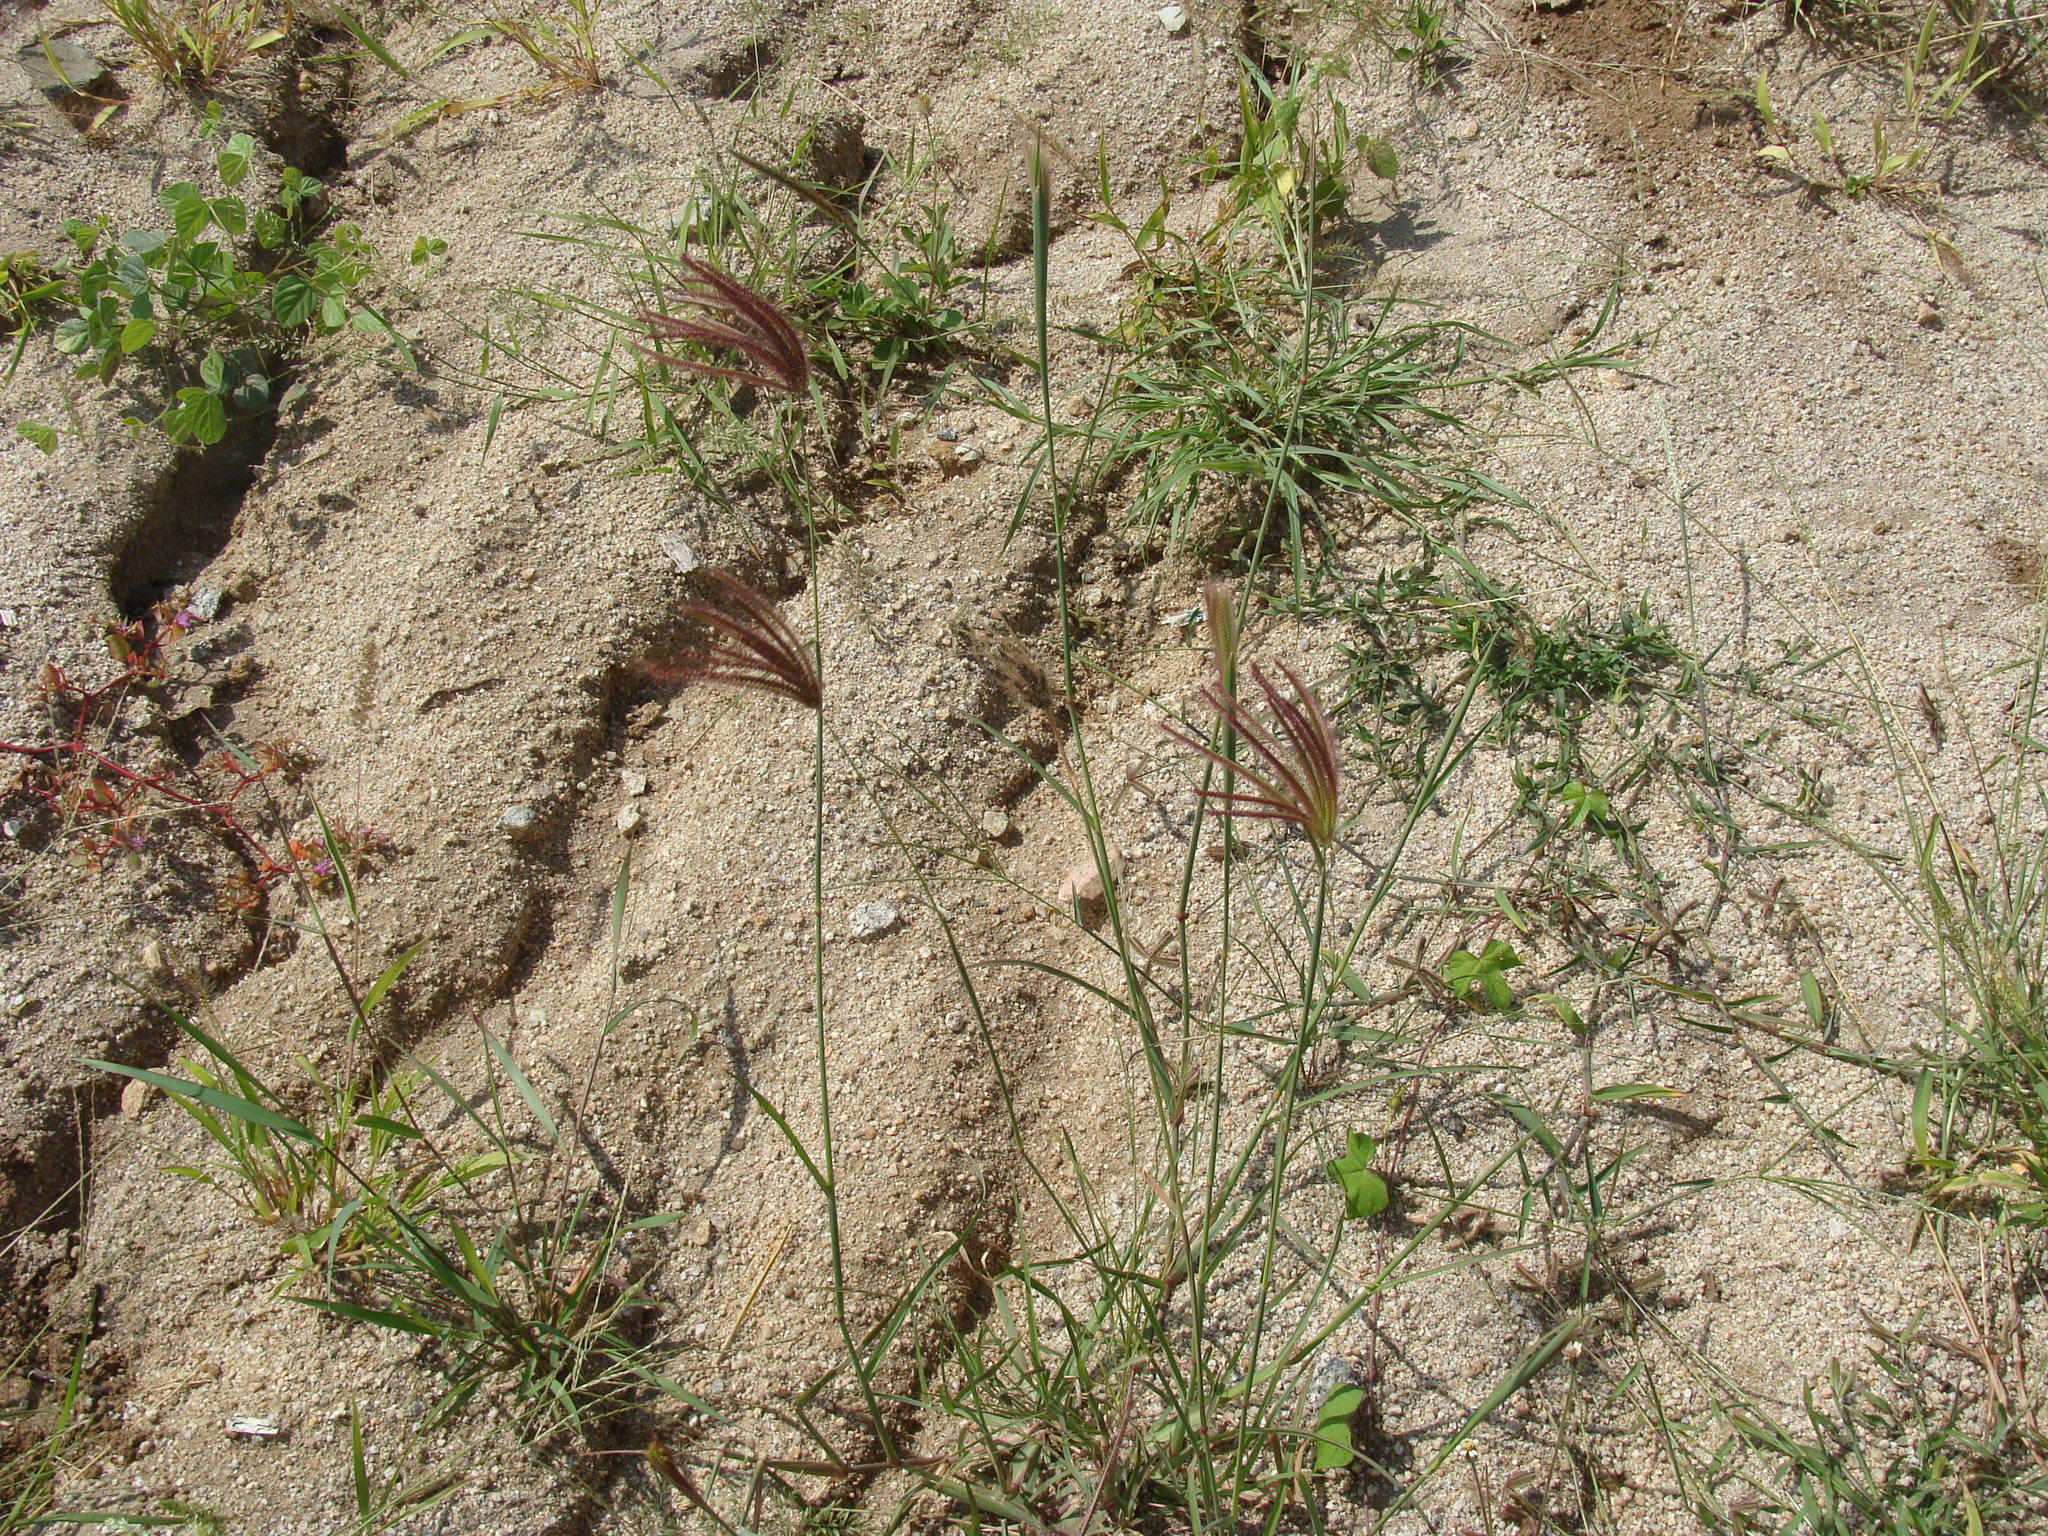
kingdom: Plantae
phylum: Tracheophyta
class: Liliopsida
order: Poales
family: Poaceae
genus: Chloris
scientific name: Chloris virgata
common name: Feathery rhodes-grass
